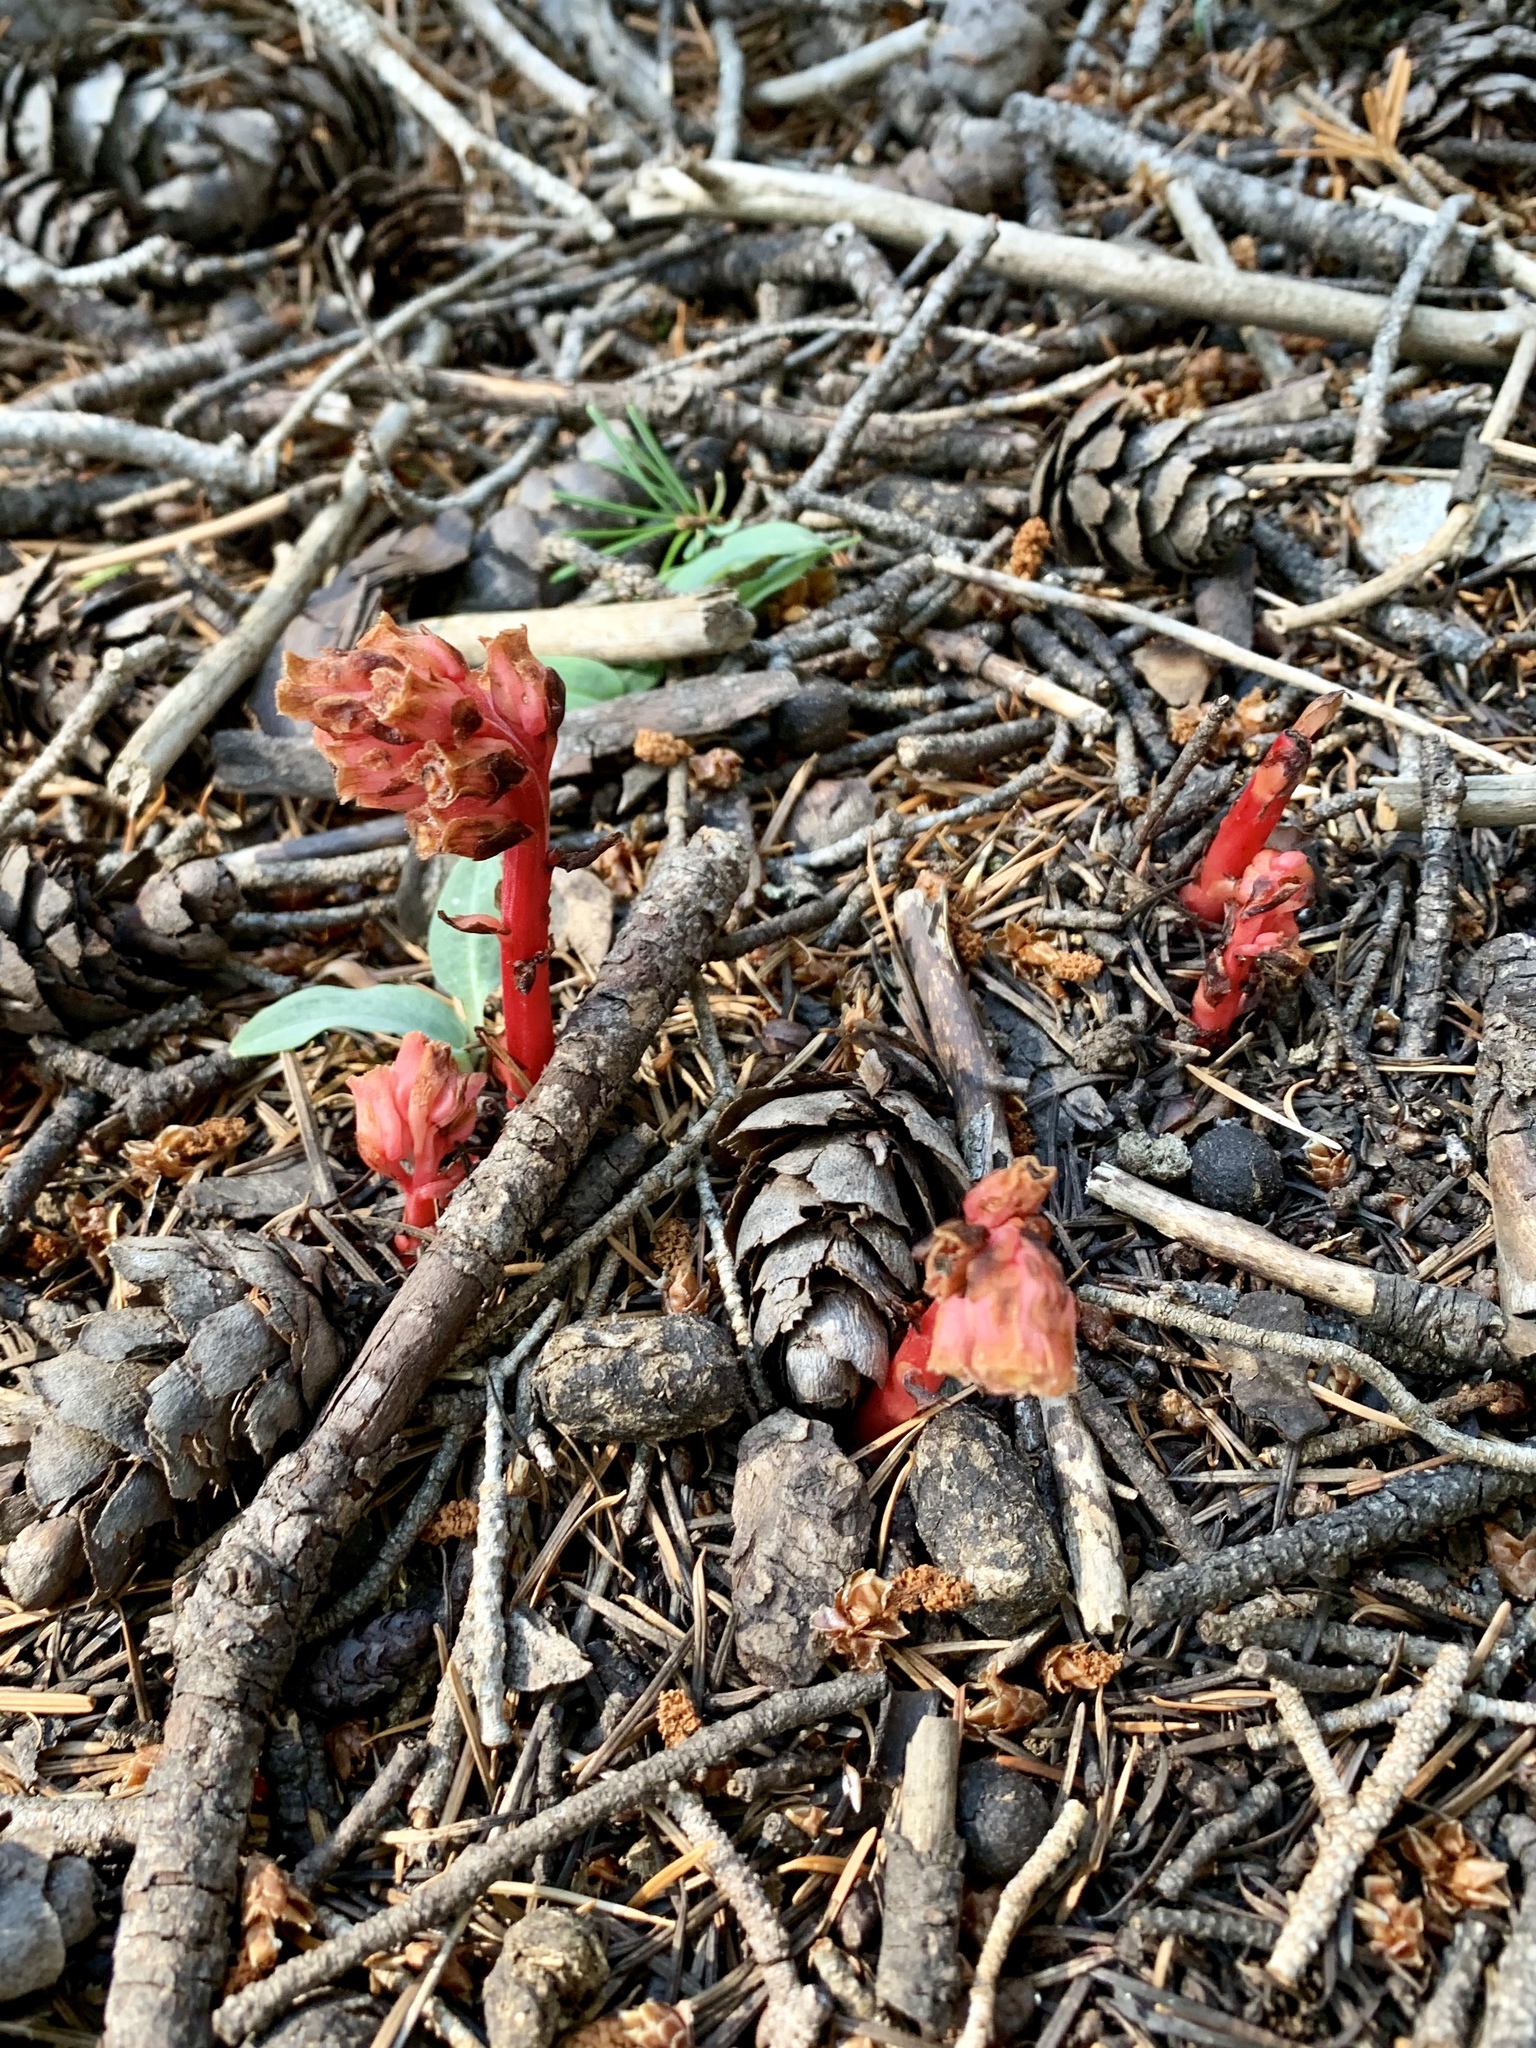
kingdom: Plantae
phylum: Tracheophyta
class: Magnoliopsida
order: Ericales
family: Ericaceae
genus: Hypopitys
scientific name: Hypopitys monotropa
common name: Yellow bird's-nest
